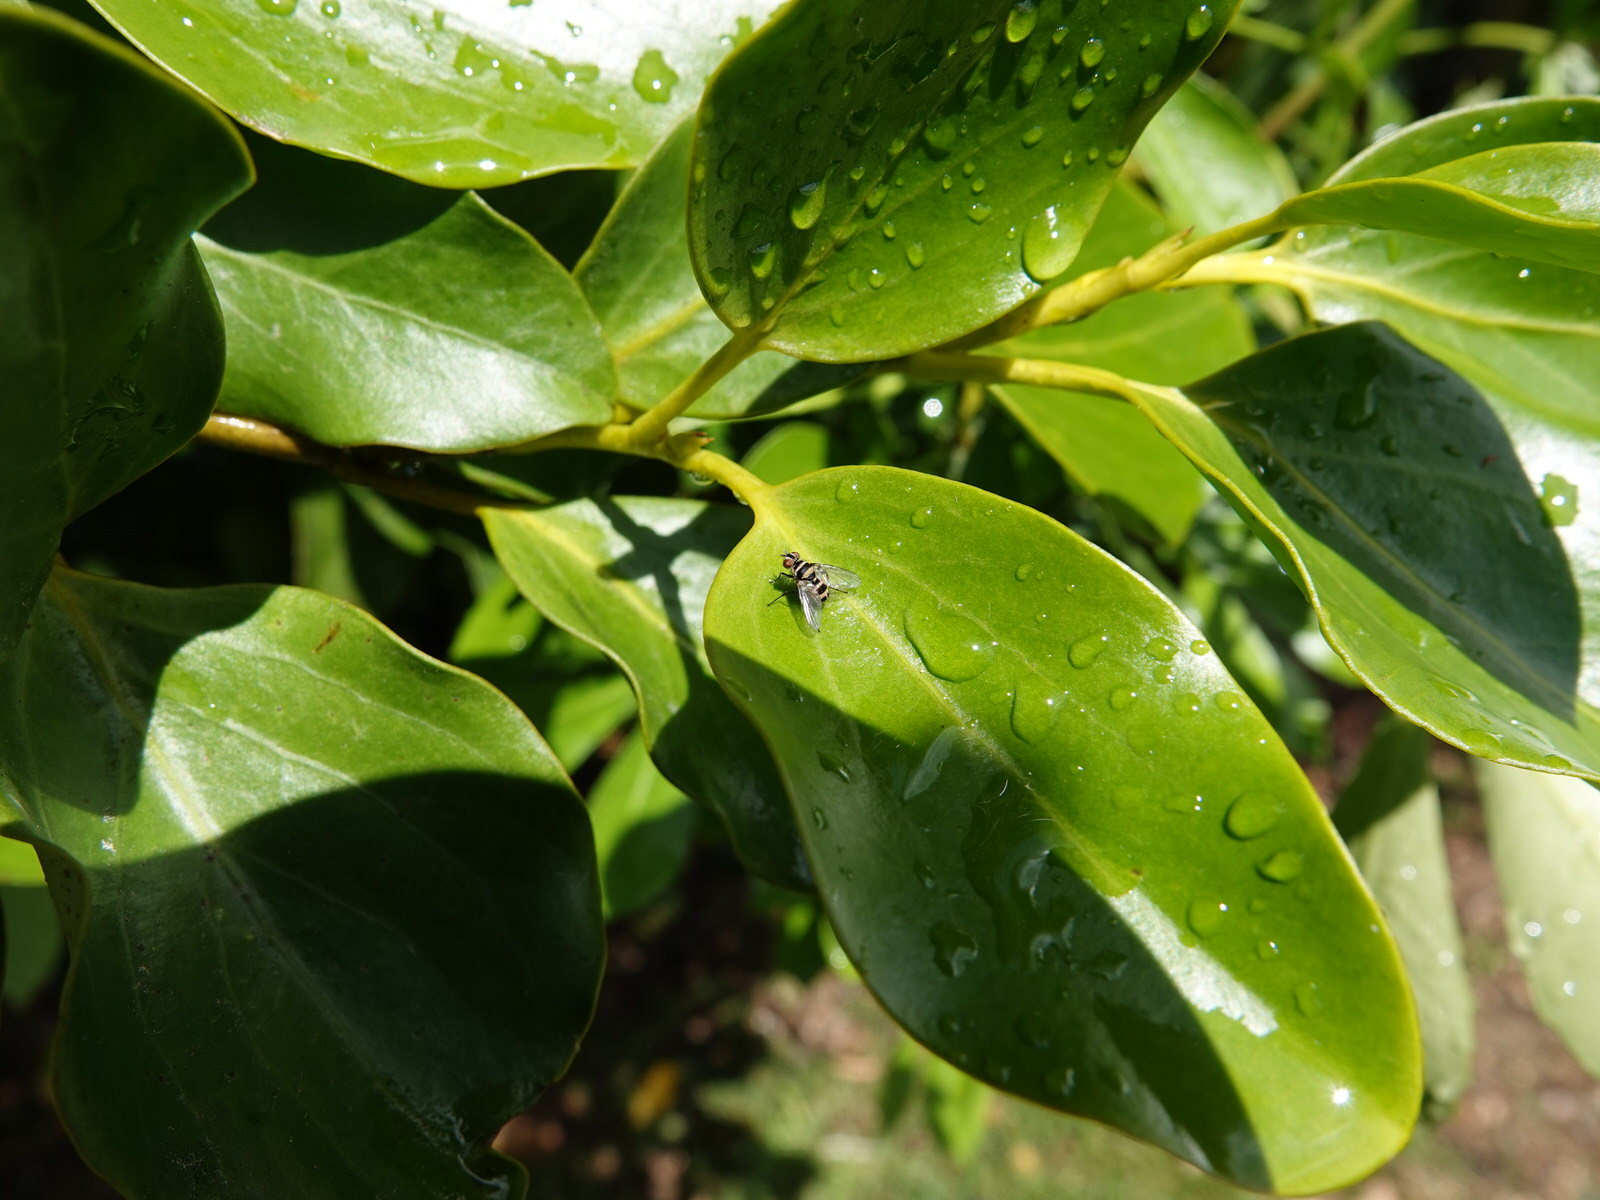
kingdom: Animalia
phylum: Arthropoda
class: Insecta
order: Diptera
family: Tachinidae
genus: Trigonospila
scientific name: Trigonospila brevifacies
